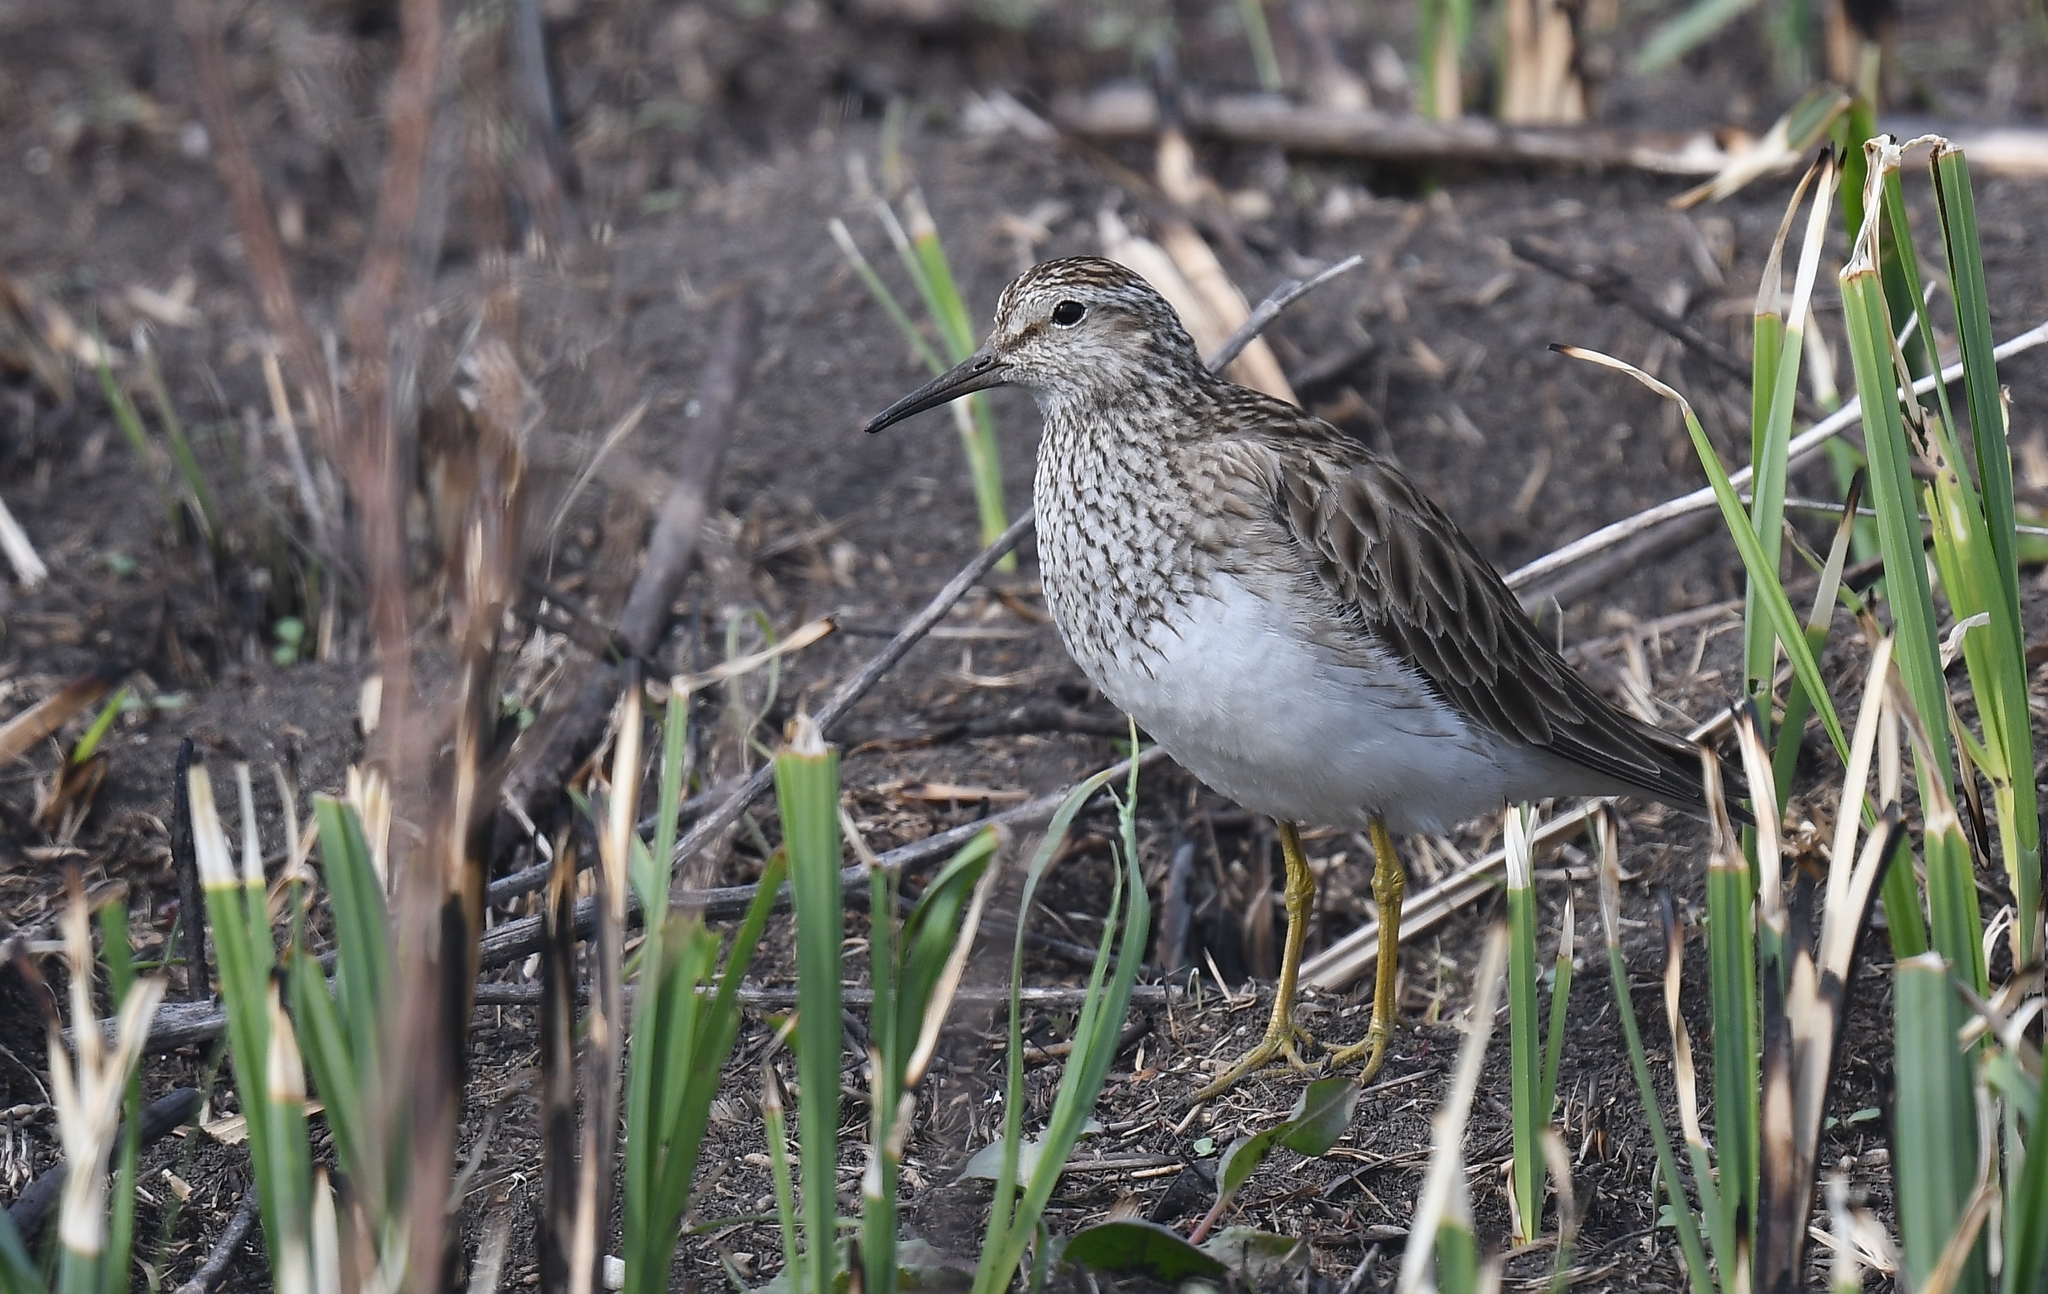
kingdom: Animalia
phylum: Chordata
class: Aves
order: Charadriiformes
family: Scolopacidae
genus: Calidris
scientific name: Calidris melanotos
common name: Pectoral sandpiper
